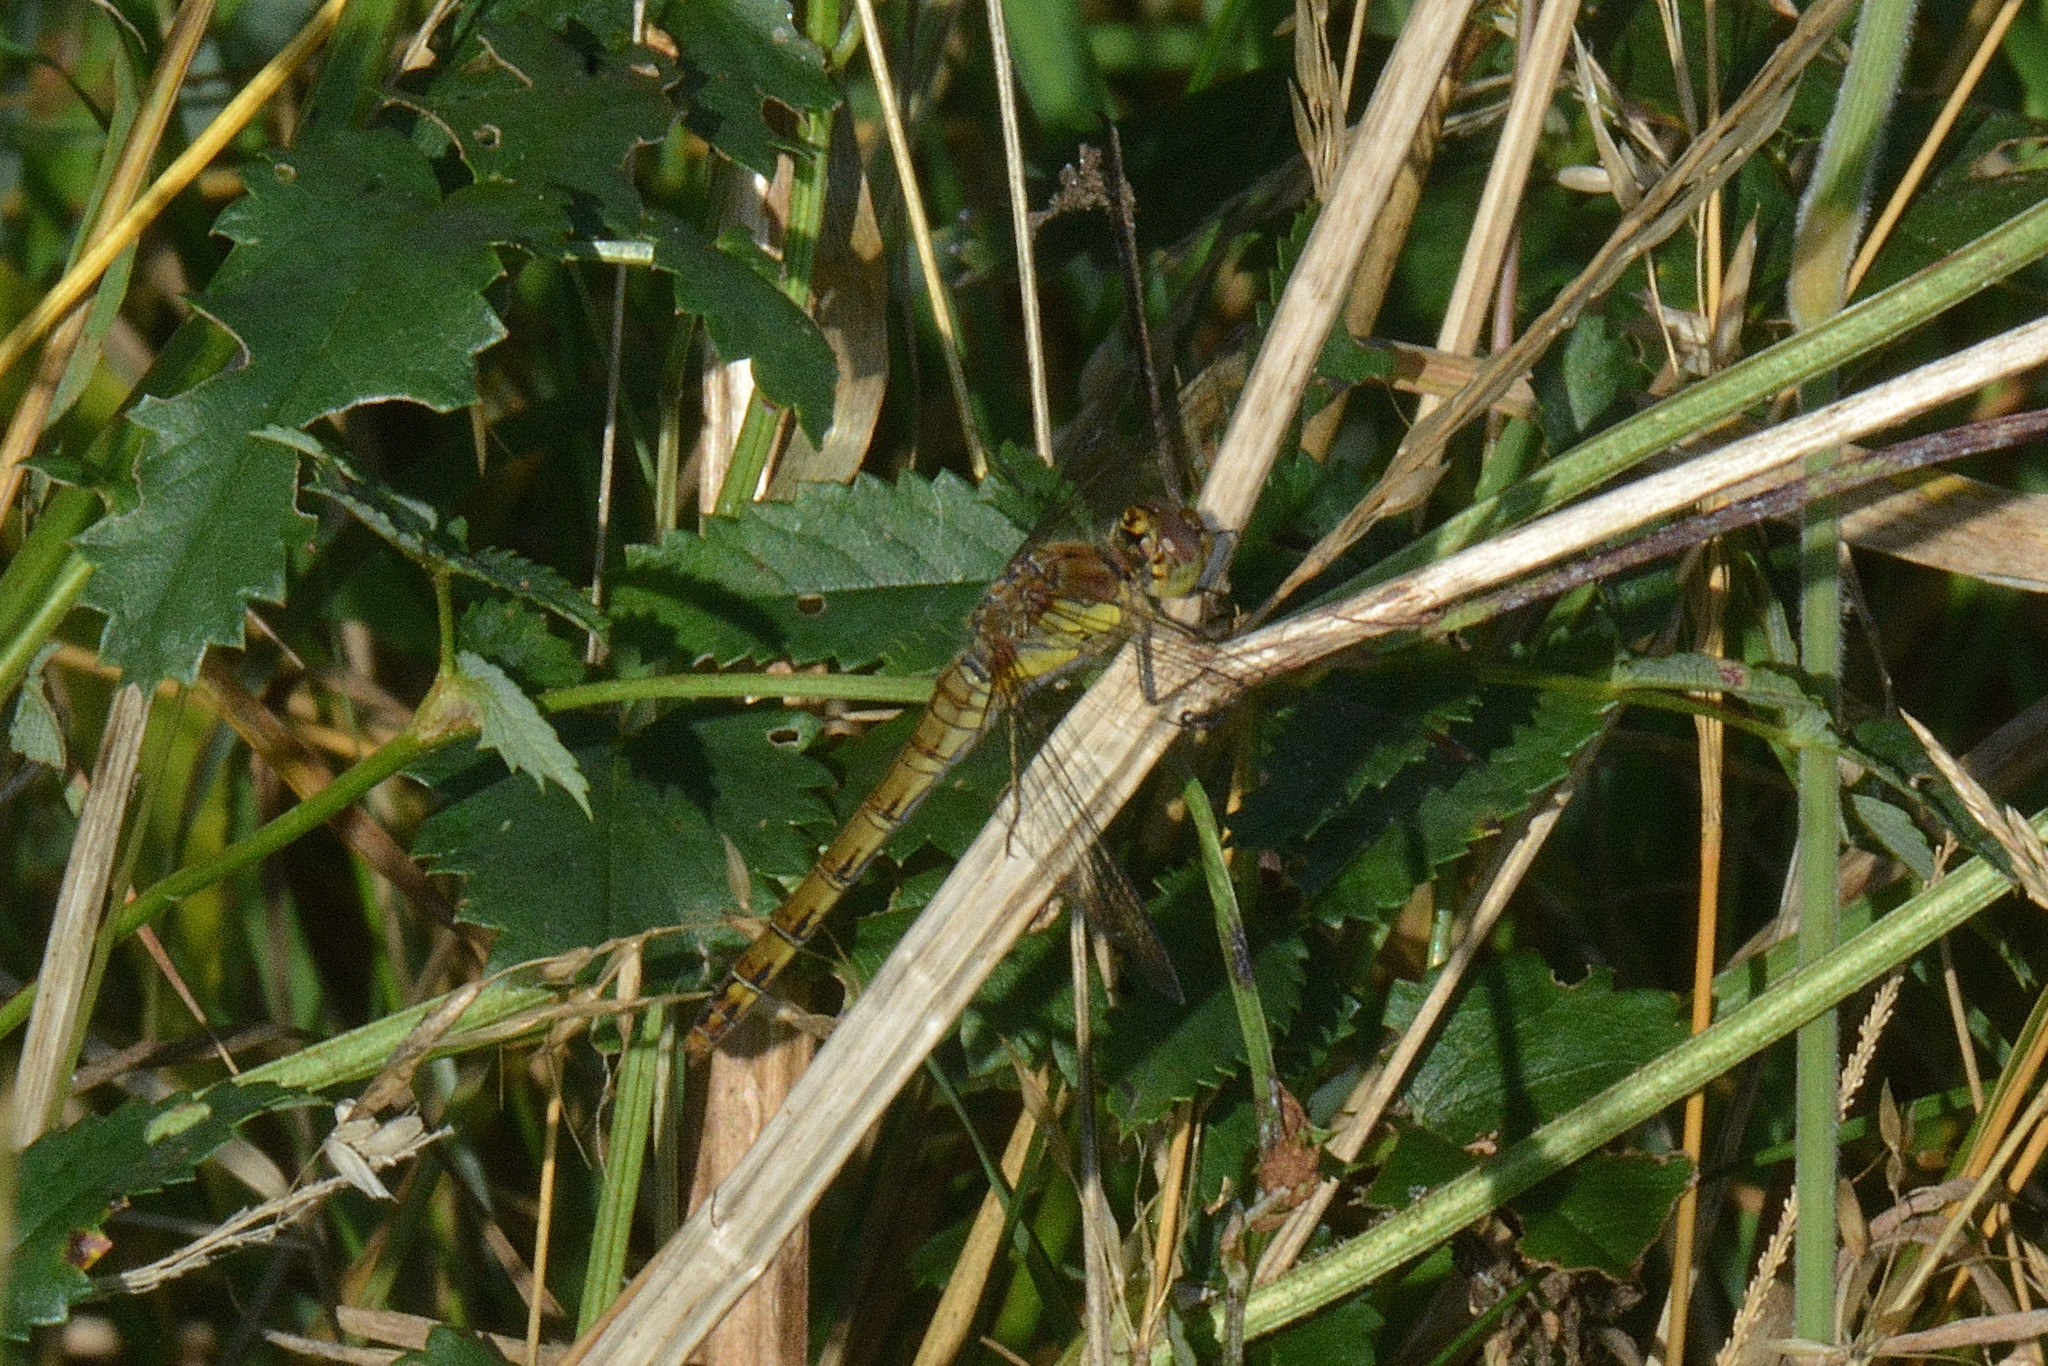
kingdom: Animalia
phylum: Arthropoda
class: Insecta
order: Odonata
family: Libellulidae
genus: Sympetrum
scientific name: Sympetrum striolatum
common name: Common darter
